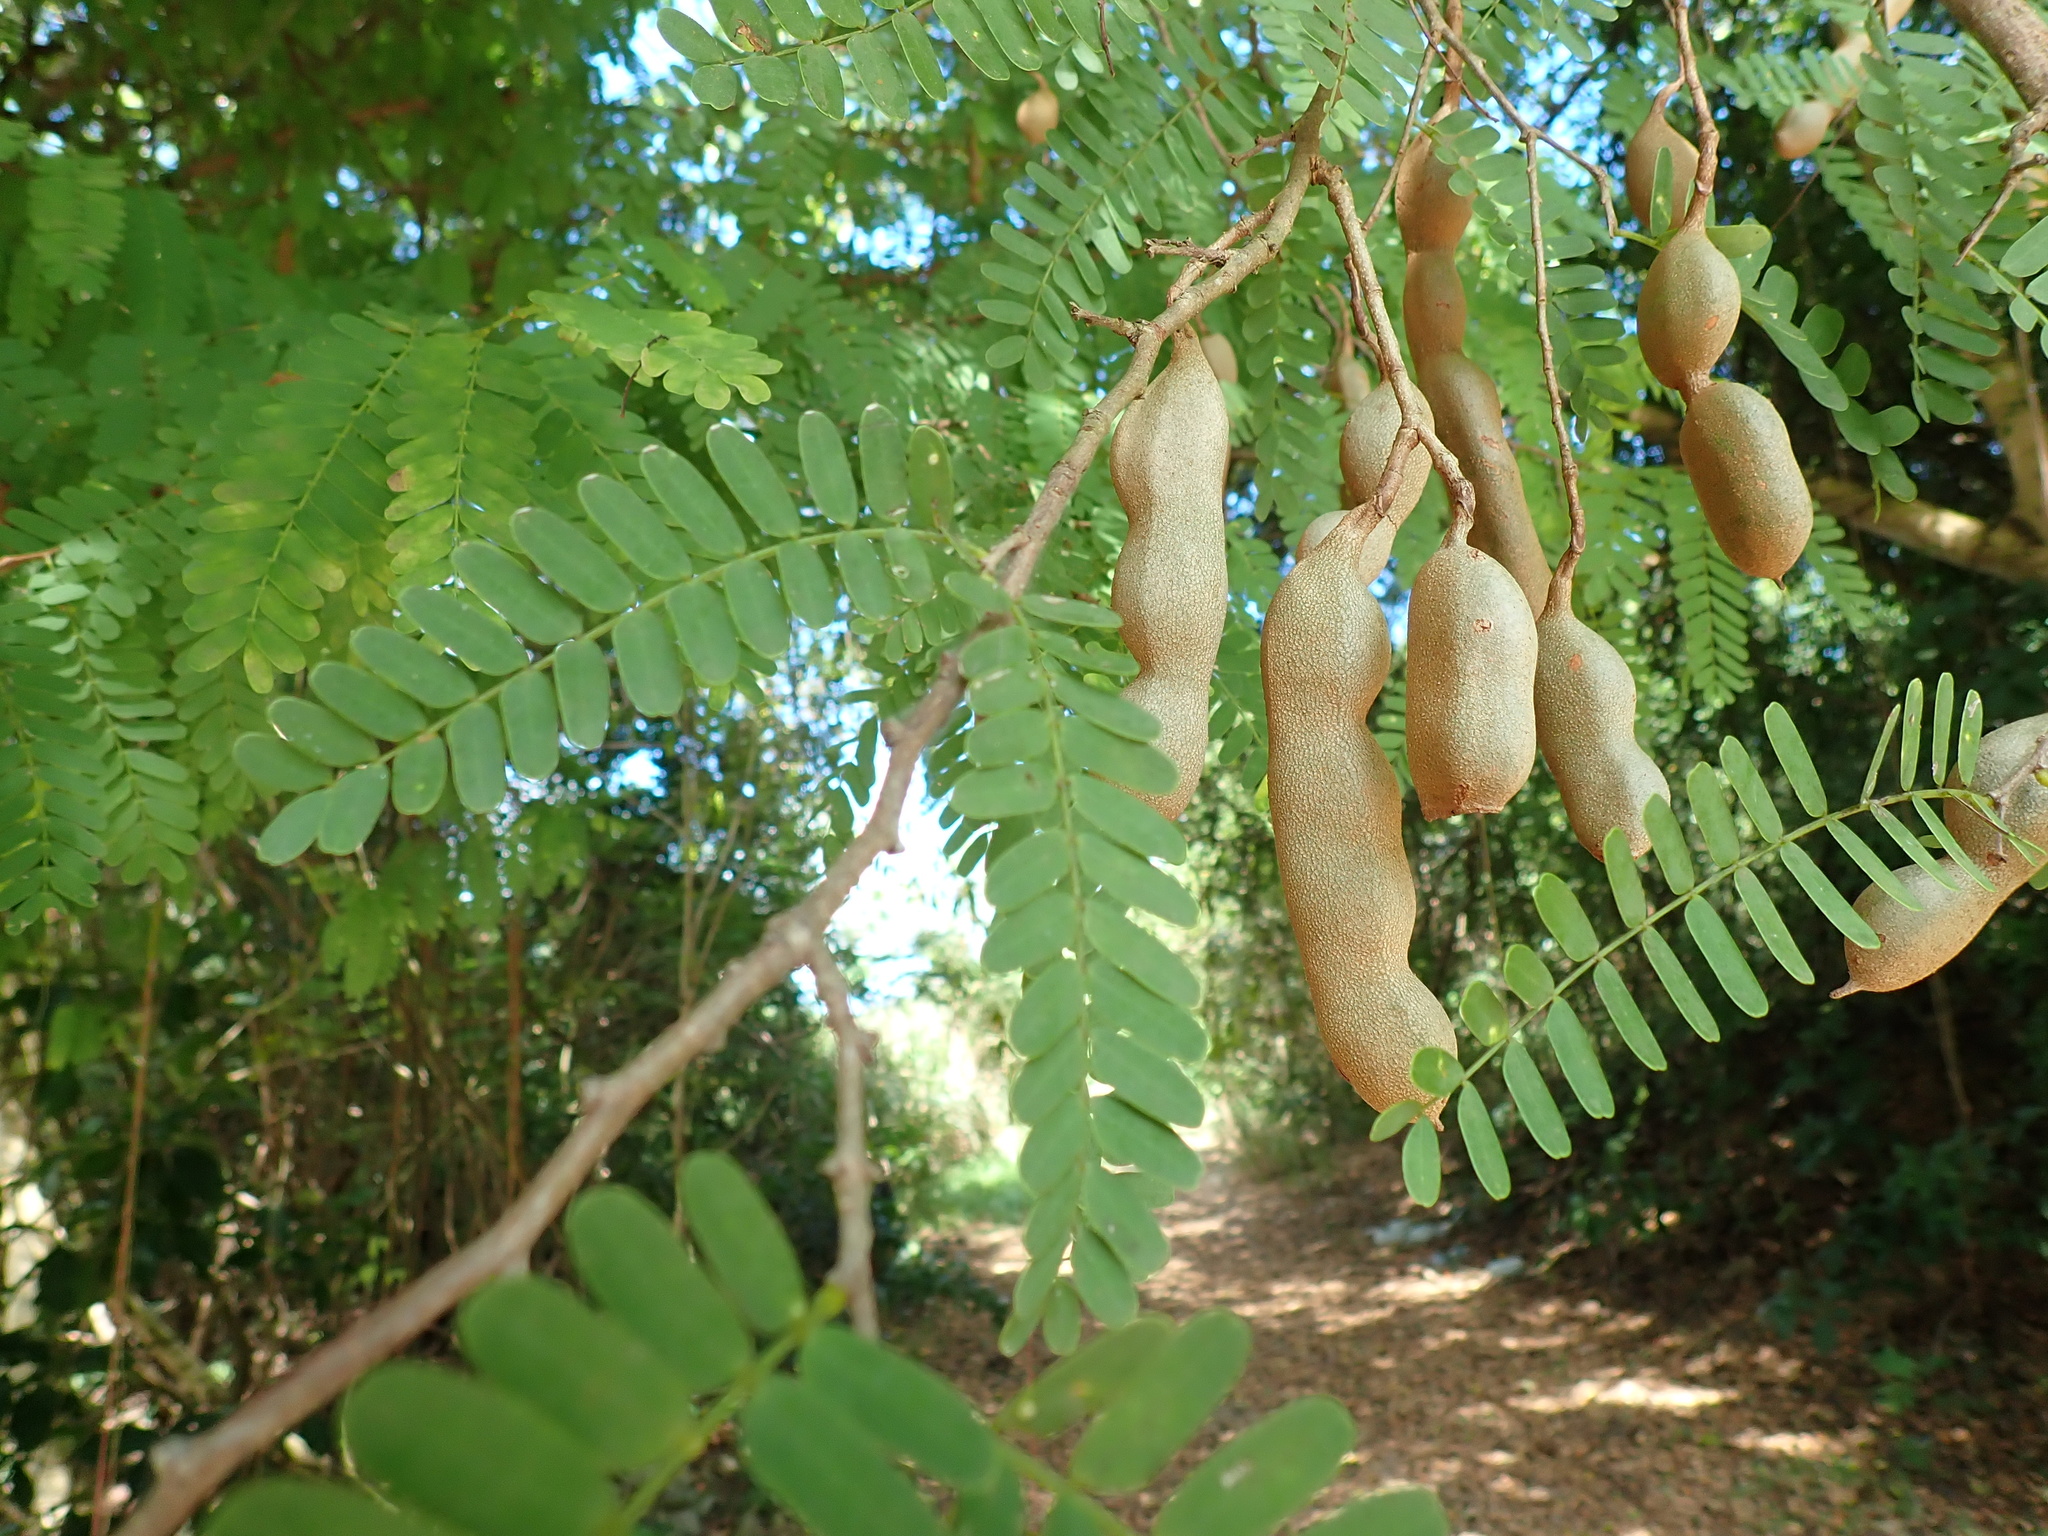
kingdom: Plantae
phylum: Tracheophyta
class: Magnoliopsida
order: Fabales
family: Fabaceae
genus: Tamarindus
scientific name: Tamarindus indica
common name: Tamarind
